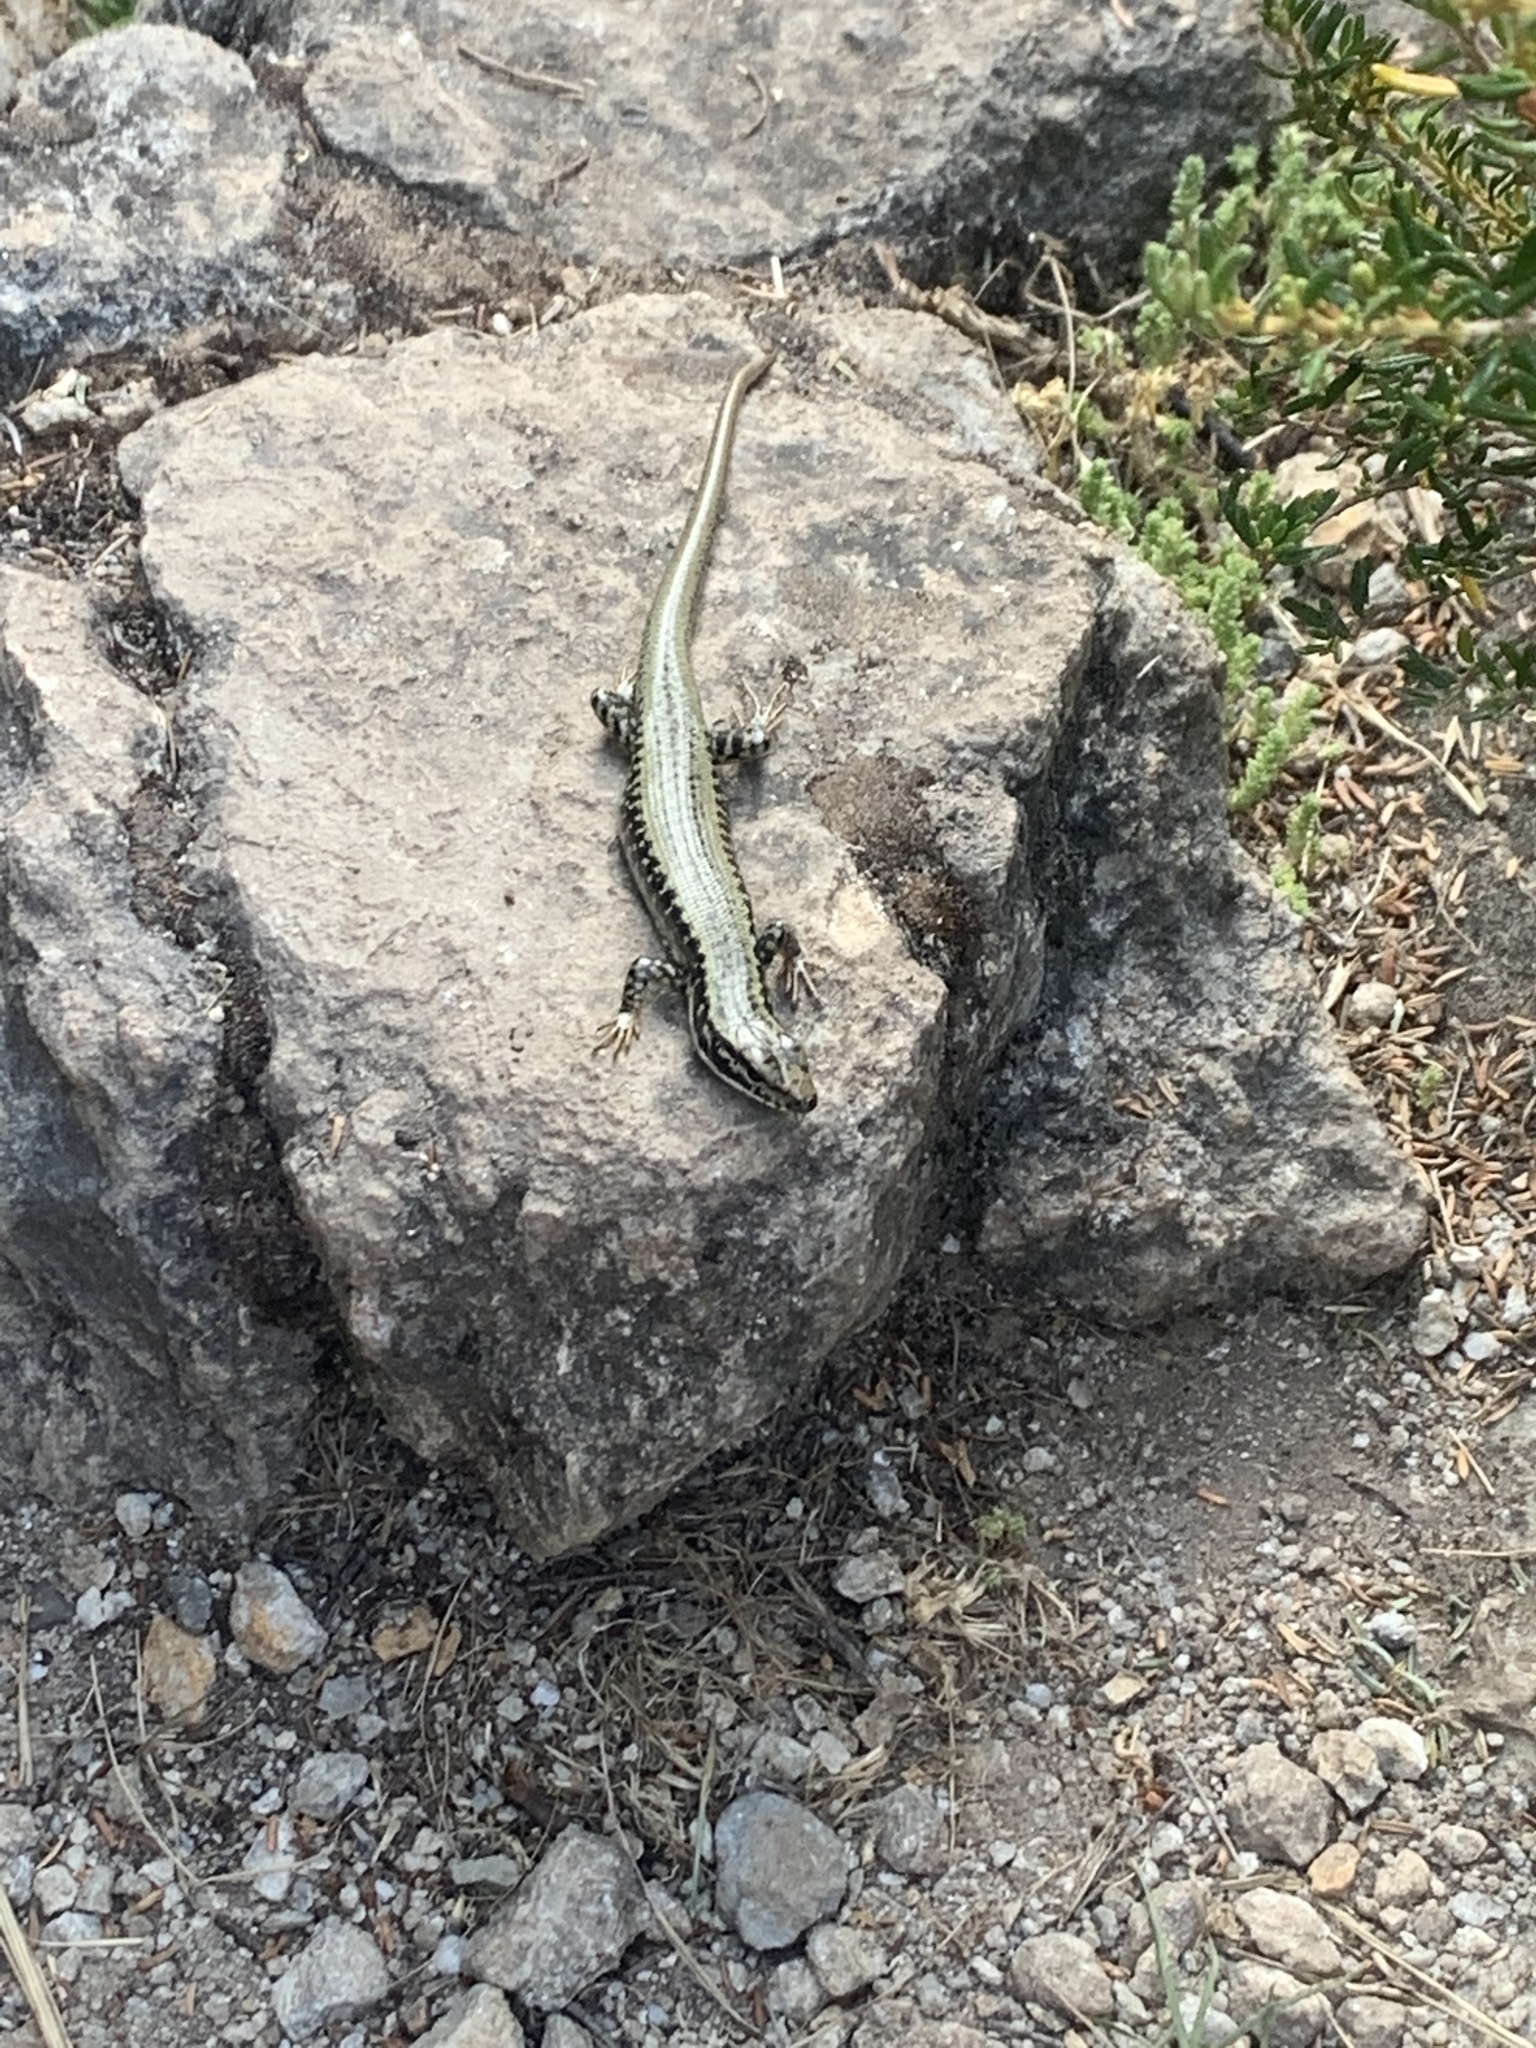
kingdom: Animalia
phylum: Chordata
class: Squamata
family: Scincidae
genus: Eulamprus
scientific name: Eulamprus heatwolei
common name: Warm-temperate water-skink
